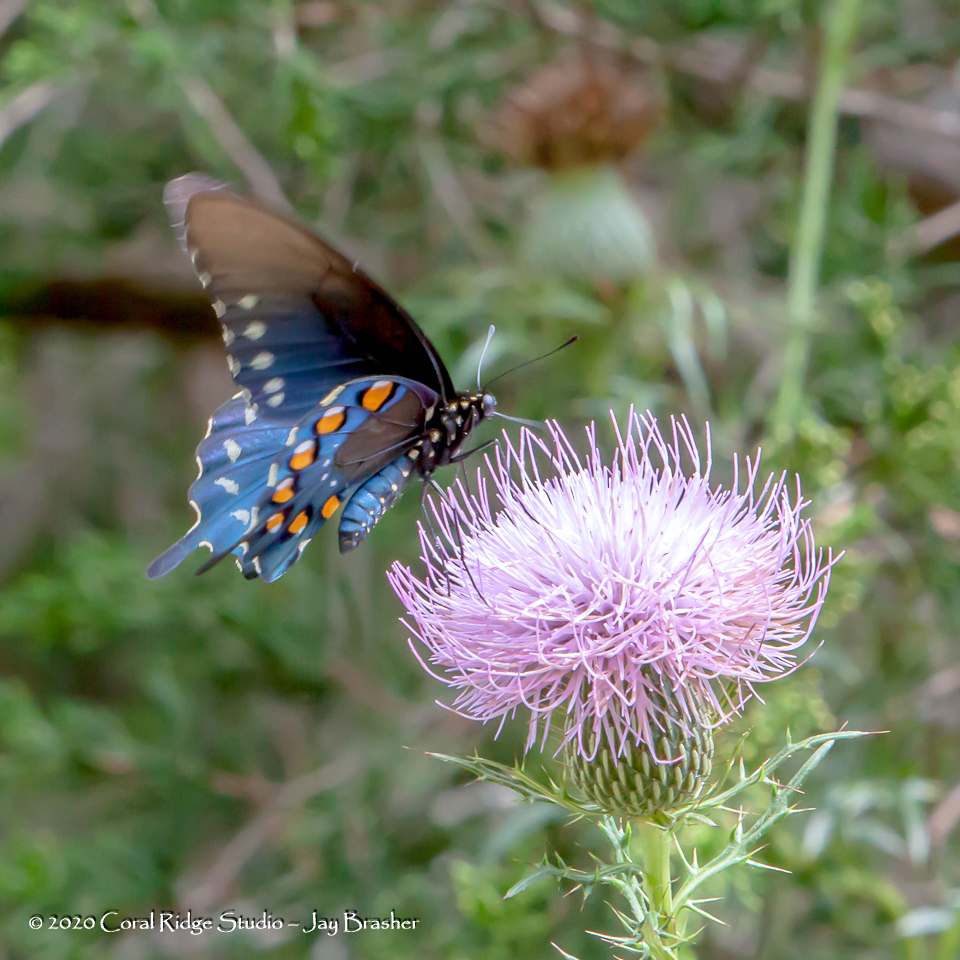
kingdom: Animalia
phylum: Arthropoda
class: Insecta
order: Lepidoptera
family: Papilionidae
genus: Battus
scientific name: Battus philenor
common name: Pipevine swallowtail
